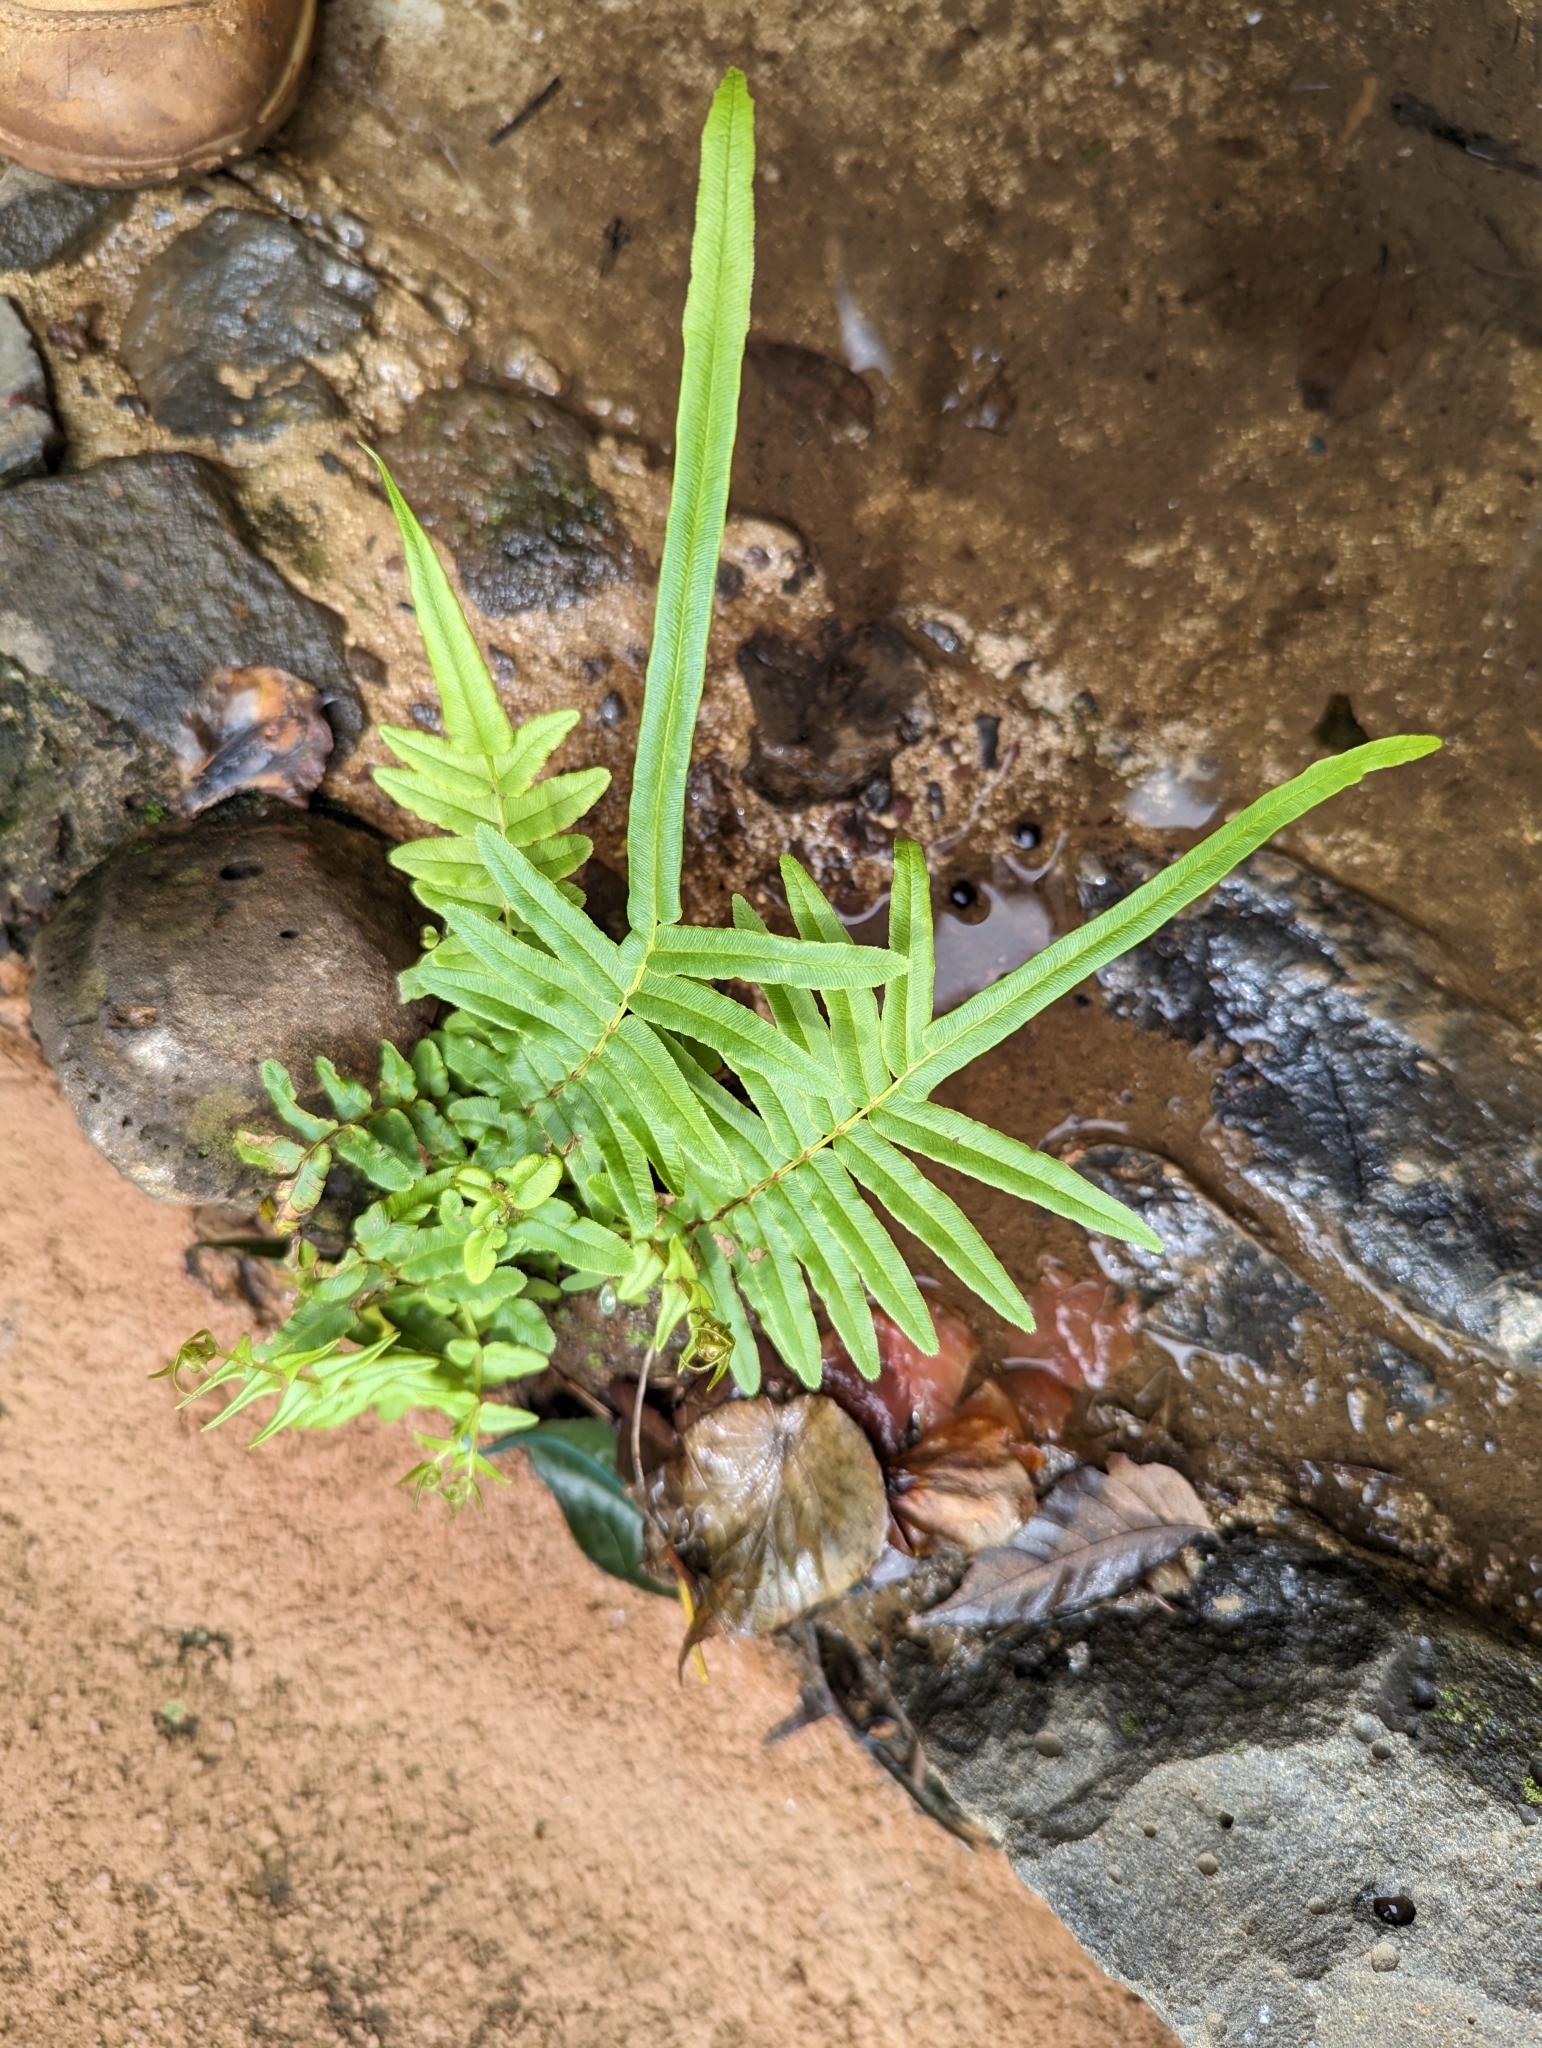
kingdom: Plantae
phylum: Tracheophyta
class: Polypodiopsida
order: Polypodiales
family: Pteridaceae
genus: Pteris
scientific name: Pteris vittata
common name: Ladder brake
